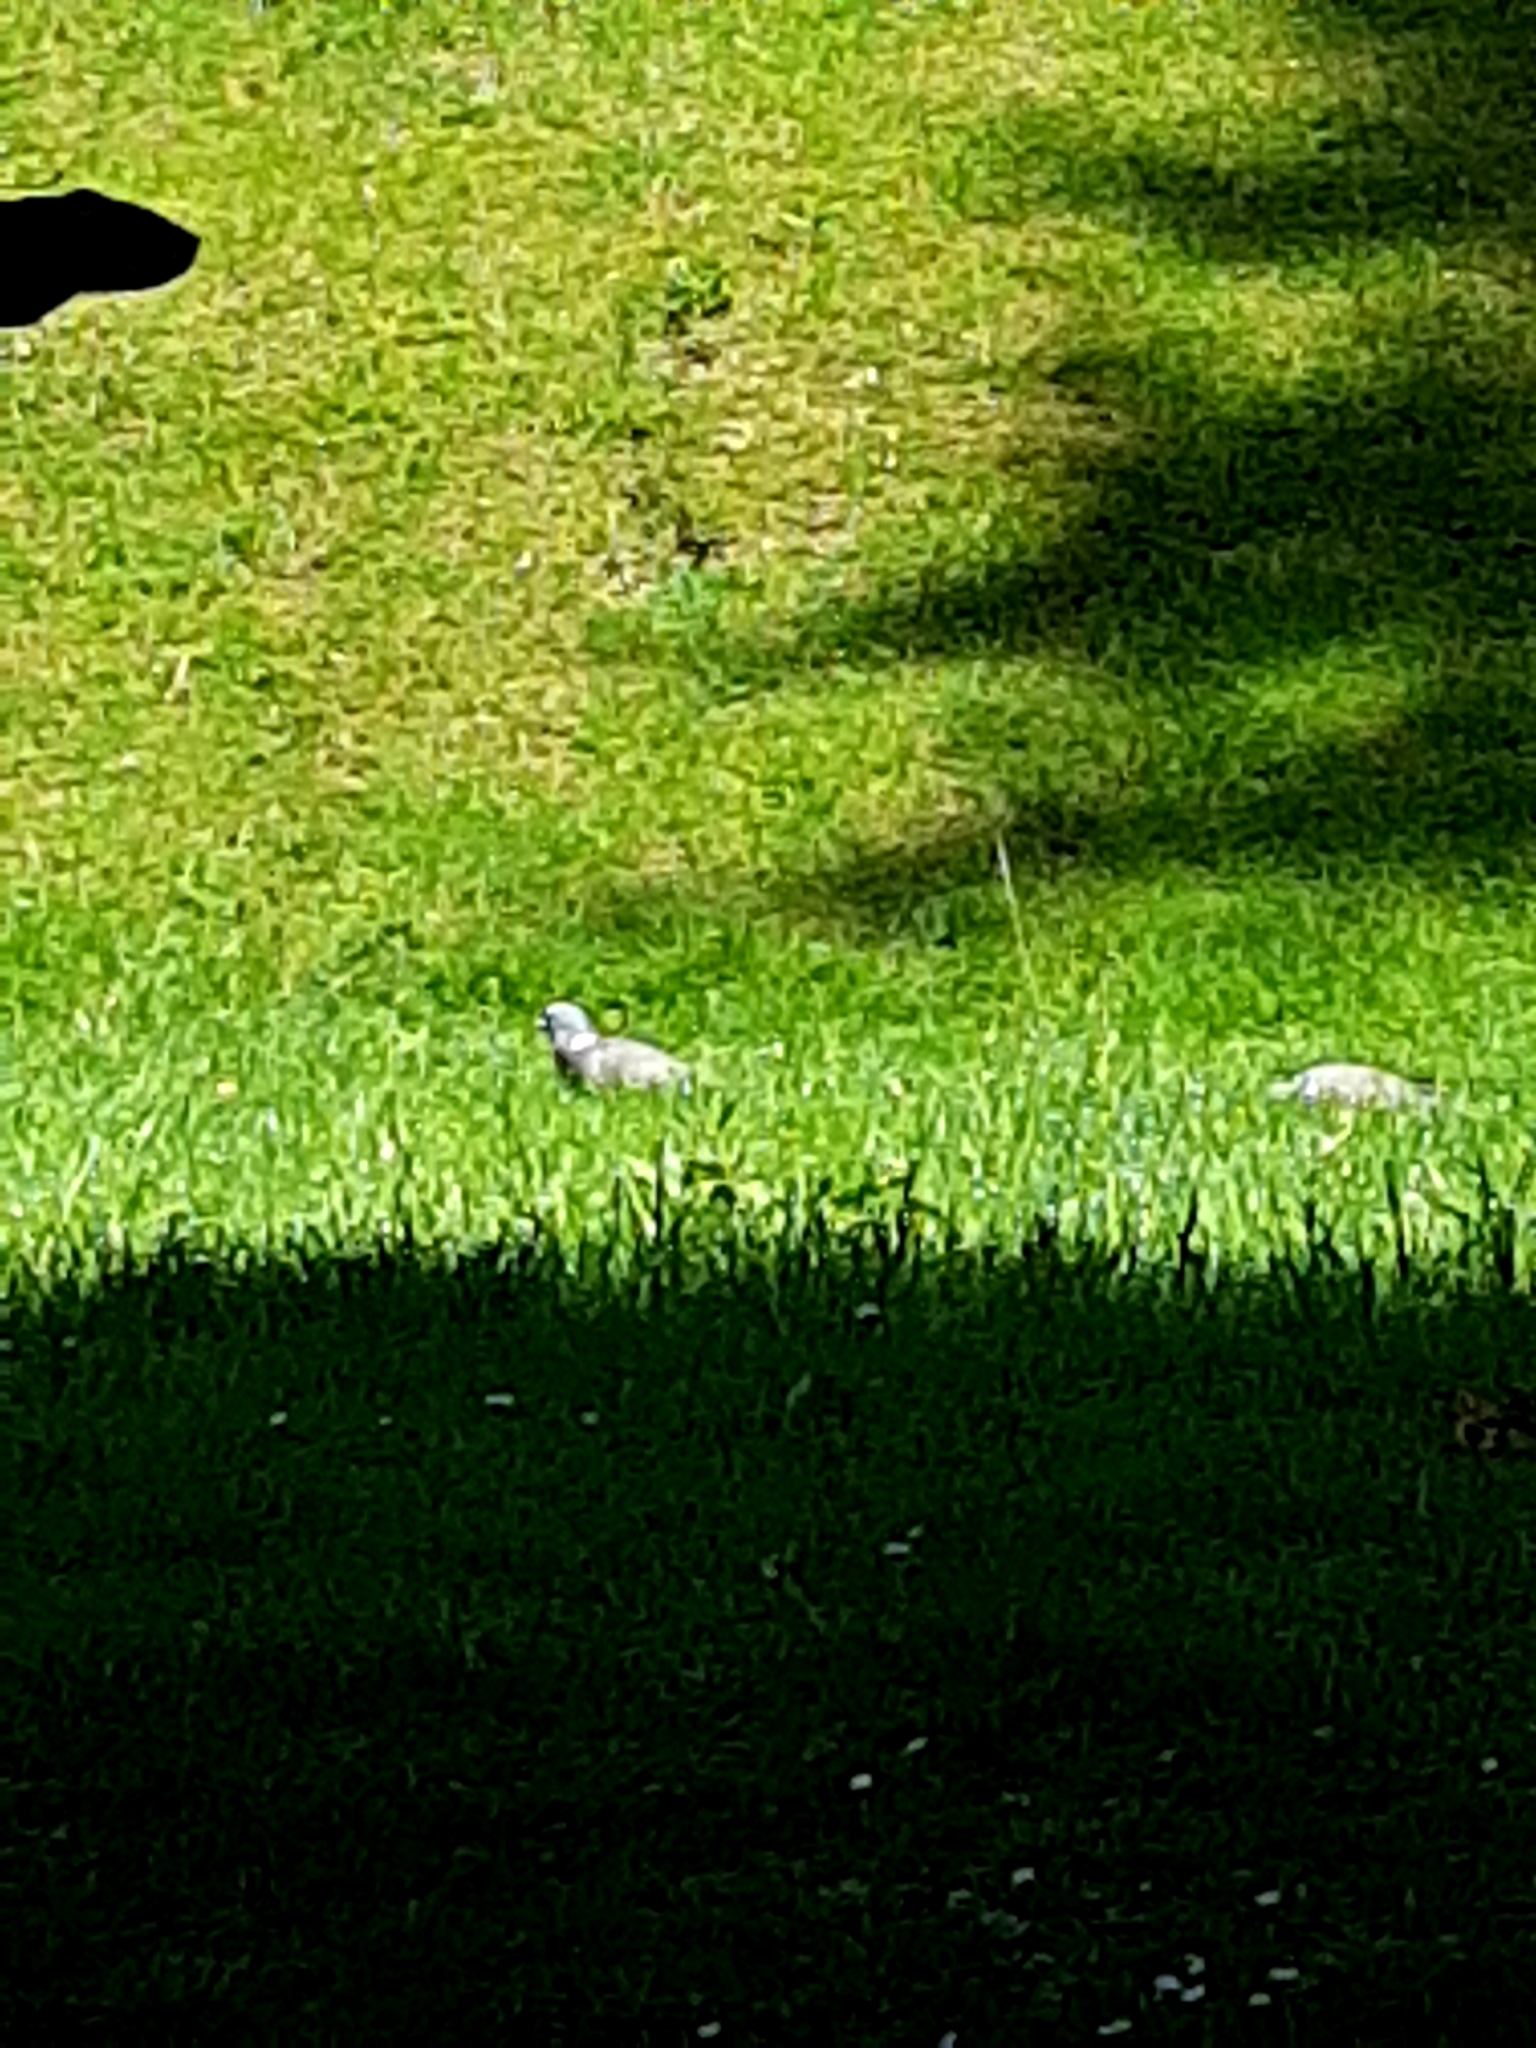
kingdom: Animalia
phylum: Chordata
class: Aves
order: Columbiformes
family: Columbidae
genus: Columba
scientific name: Columba palumbus
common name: Common wood pigeon
